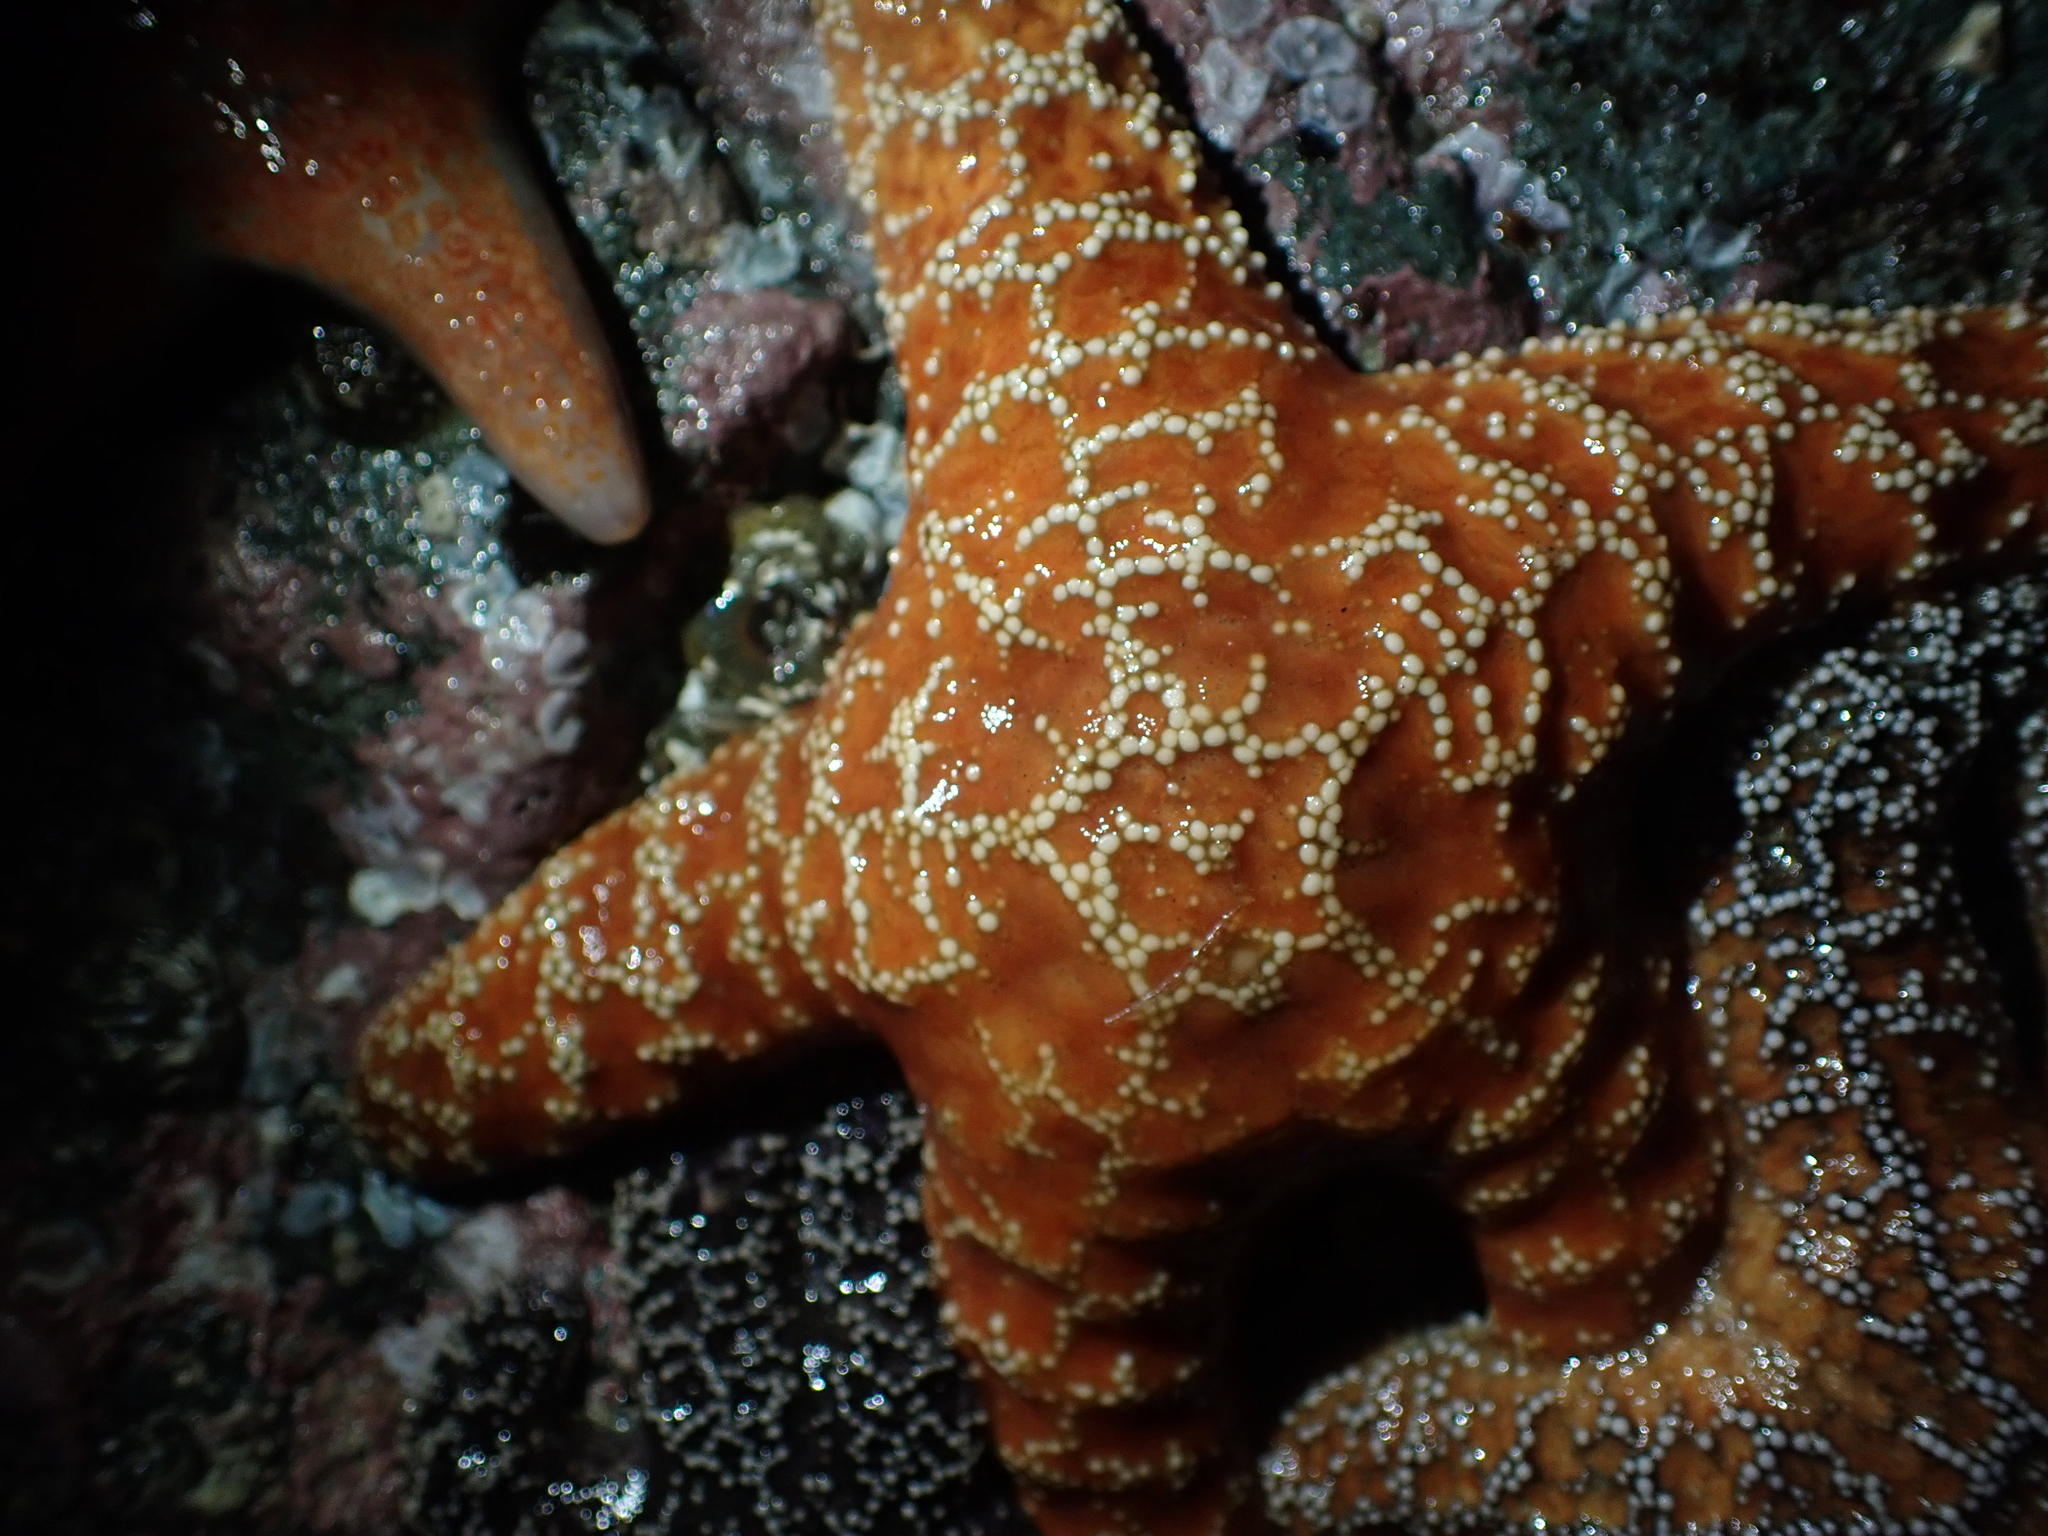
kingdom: Animalia
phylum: Echinodermata
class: Asteroidea
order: Forcipulatida
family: Asteriidae
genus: Pisaster
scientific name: Pisaster ochraceus
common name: Ochre stars
